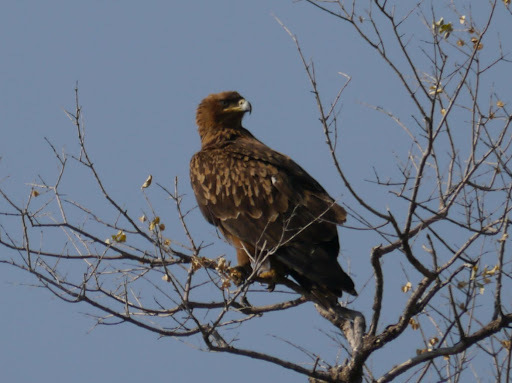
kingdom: Animalia
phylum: Chordata
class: Aves
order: Accipitriformes
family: Accipitridae
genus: Aquila
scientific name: Aquila rapax
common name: Tawny eagle
